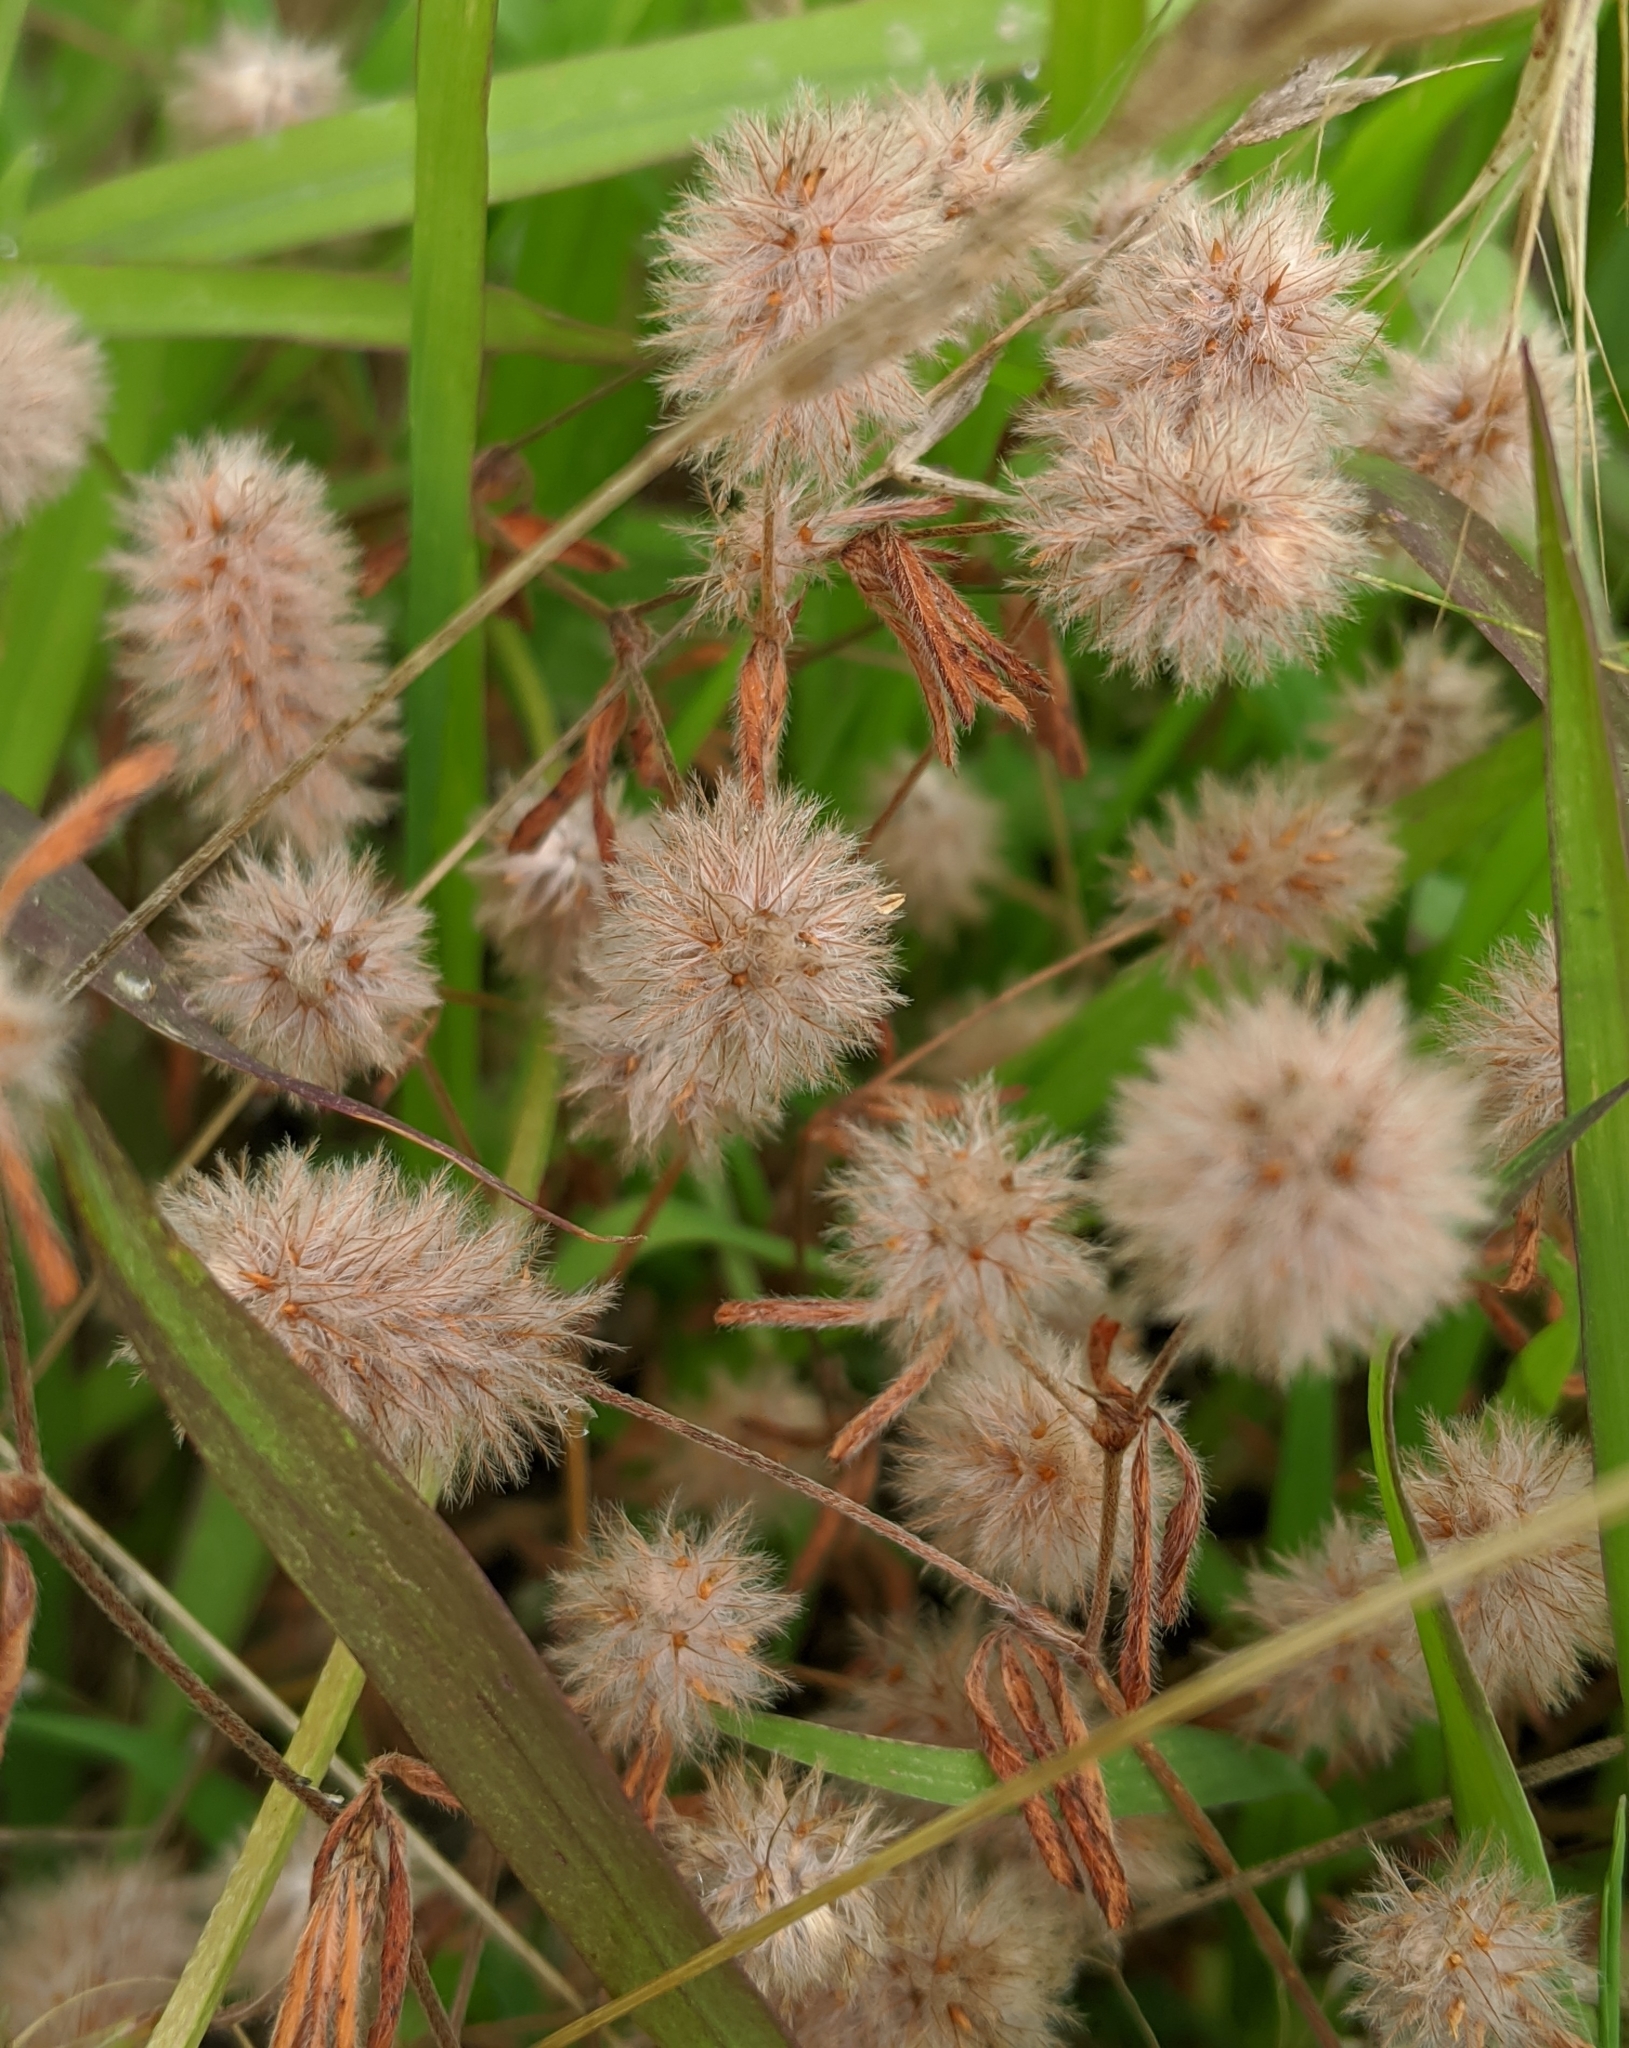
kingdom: Plantae
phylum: Tracheophyta
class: Magnoliopsida
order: Fabales
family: Fabaceae
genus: Trifolium
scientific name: Trifolium arvense
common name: Hare's-foot clover
